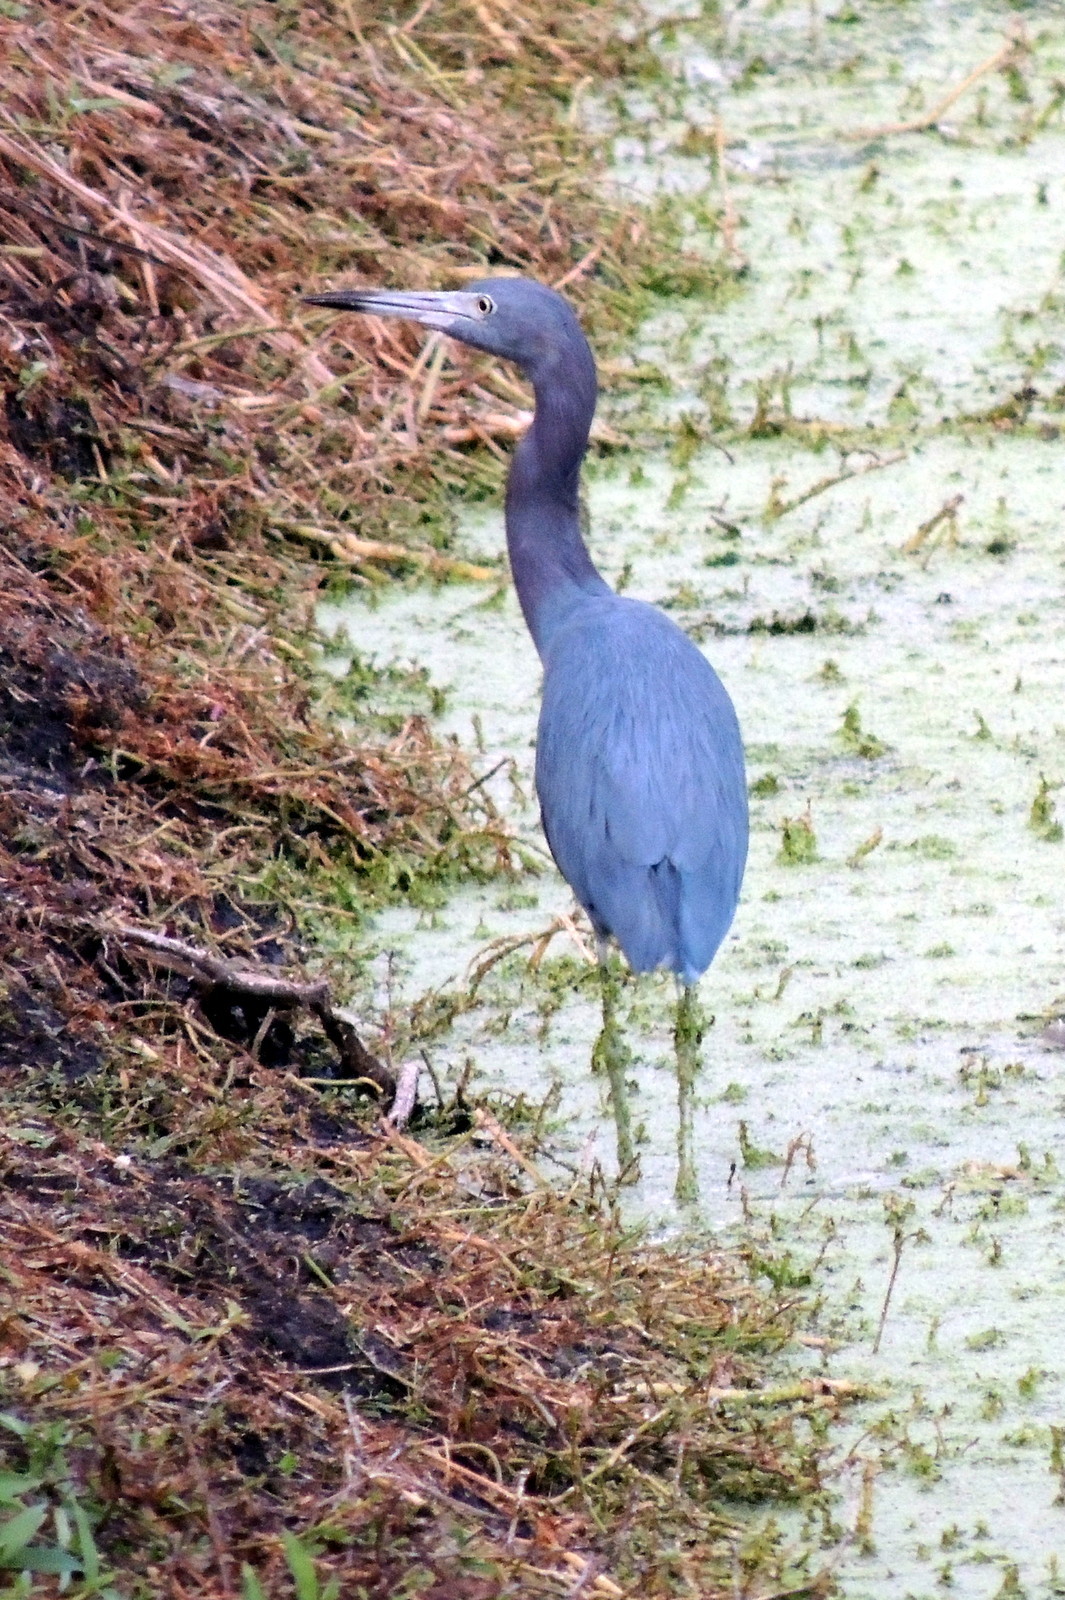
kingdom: Animalia
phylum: Chordata
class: Aves
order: Pelecaniformes
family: Ardeidae
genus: Egretta
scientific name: Egretta caerulea
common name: Little blue heron
